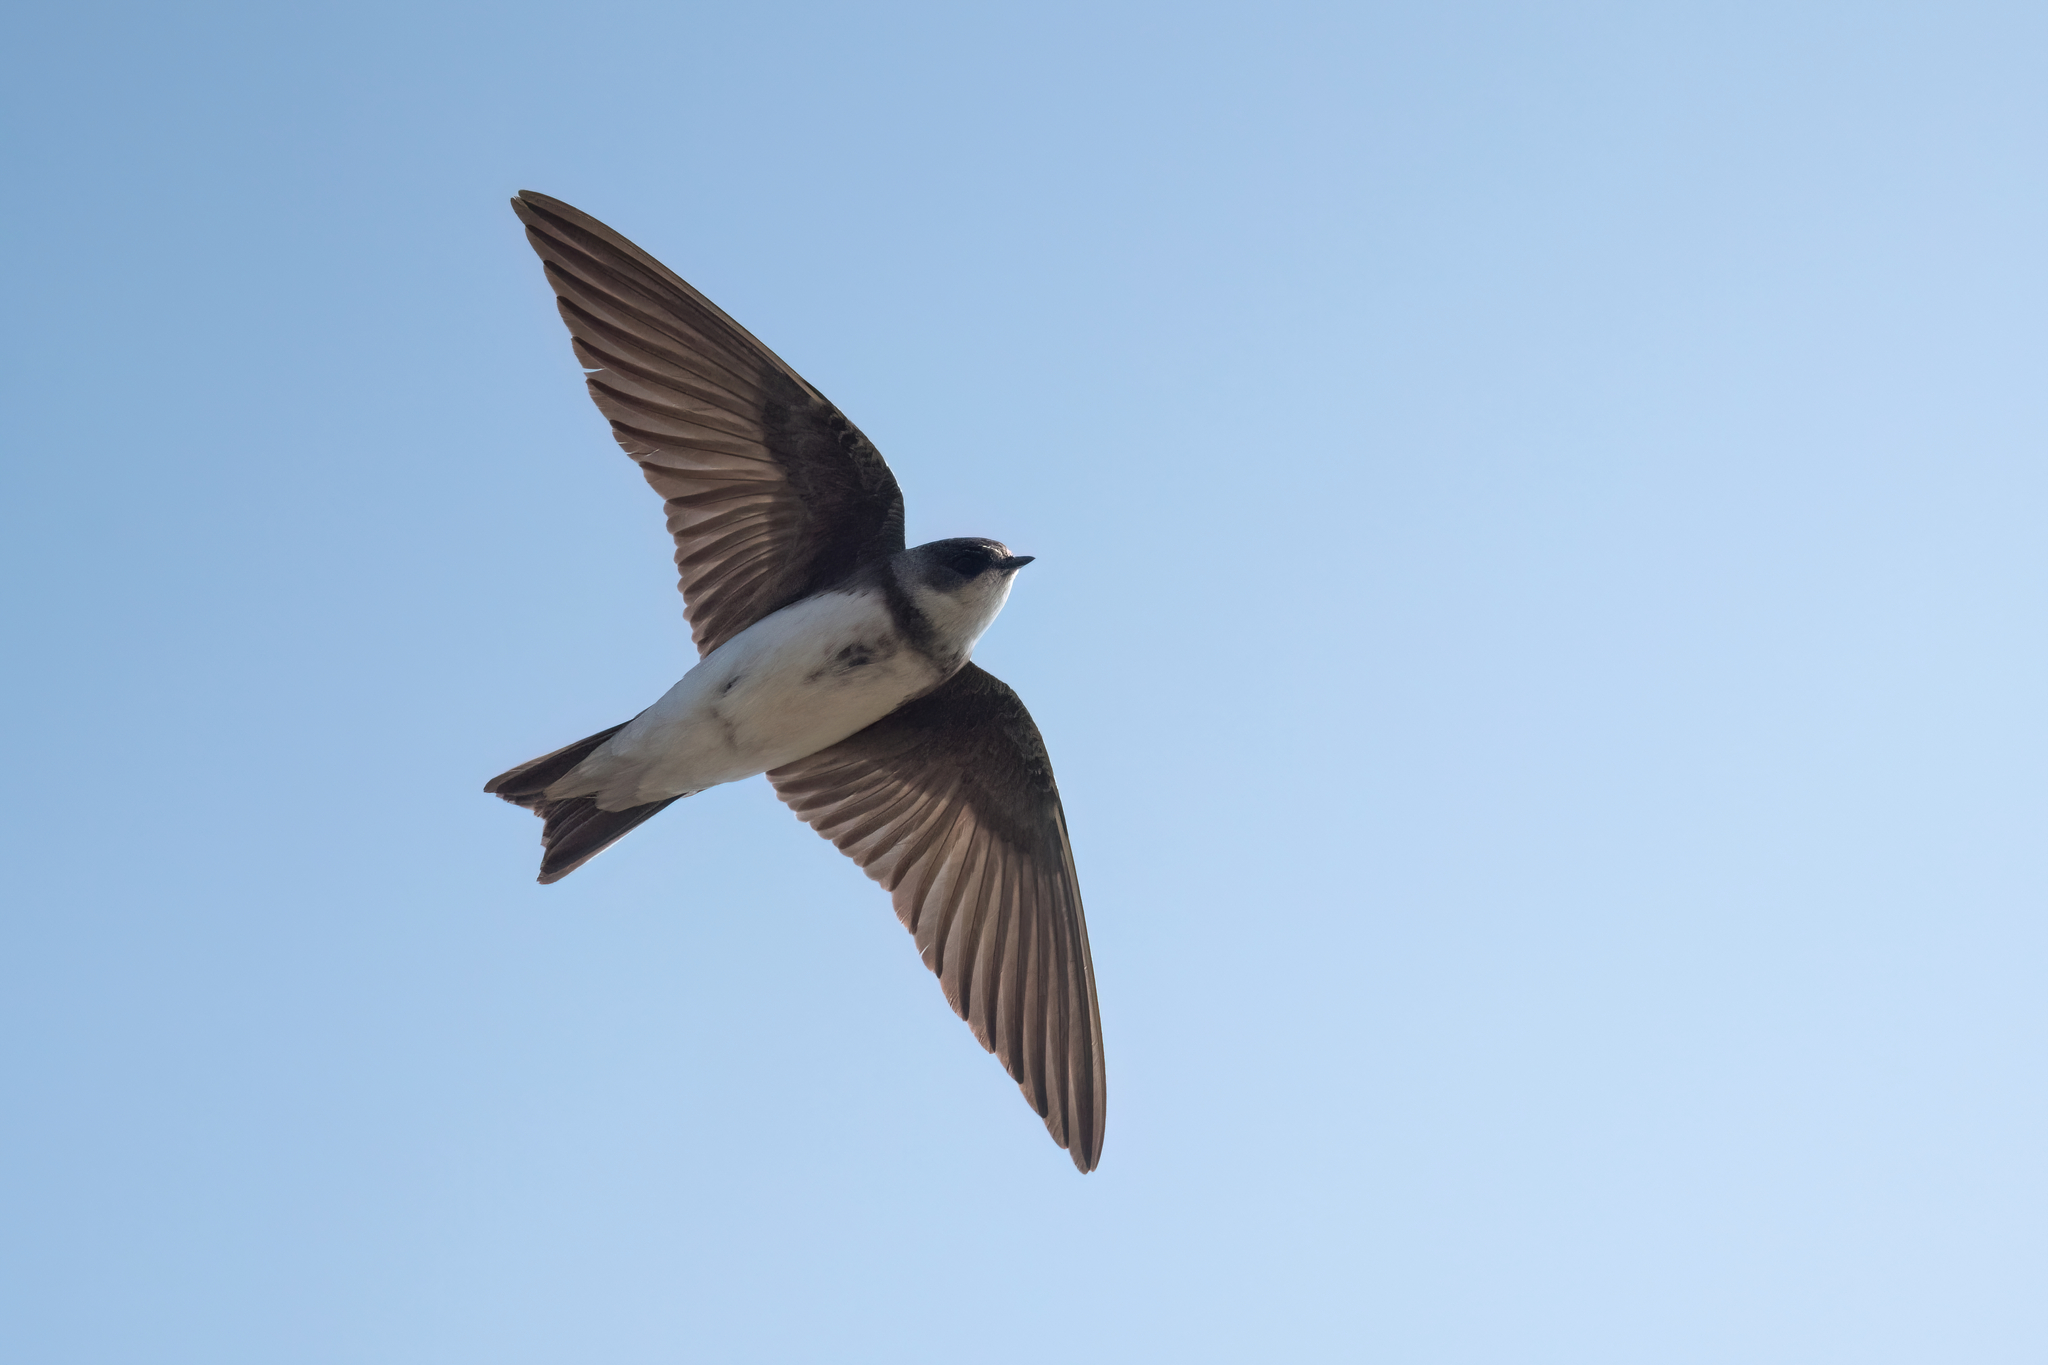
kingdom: Animalia
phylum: Chordata
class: Aves
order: Passeriformes
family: Hirundinidae
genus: Riparia
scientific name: Riparia riparia
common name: Sand martin
